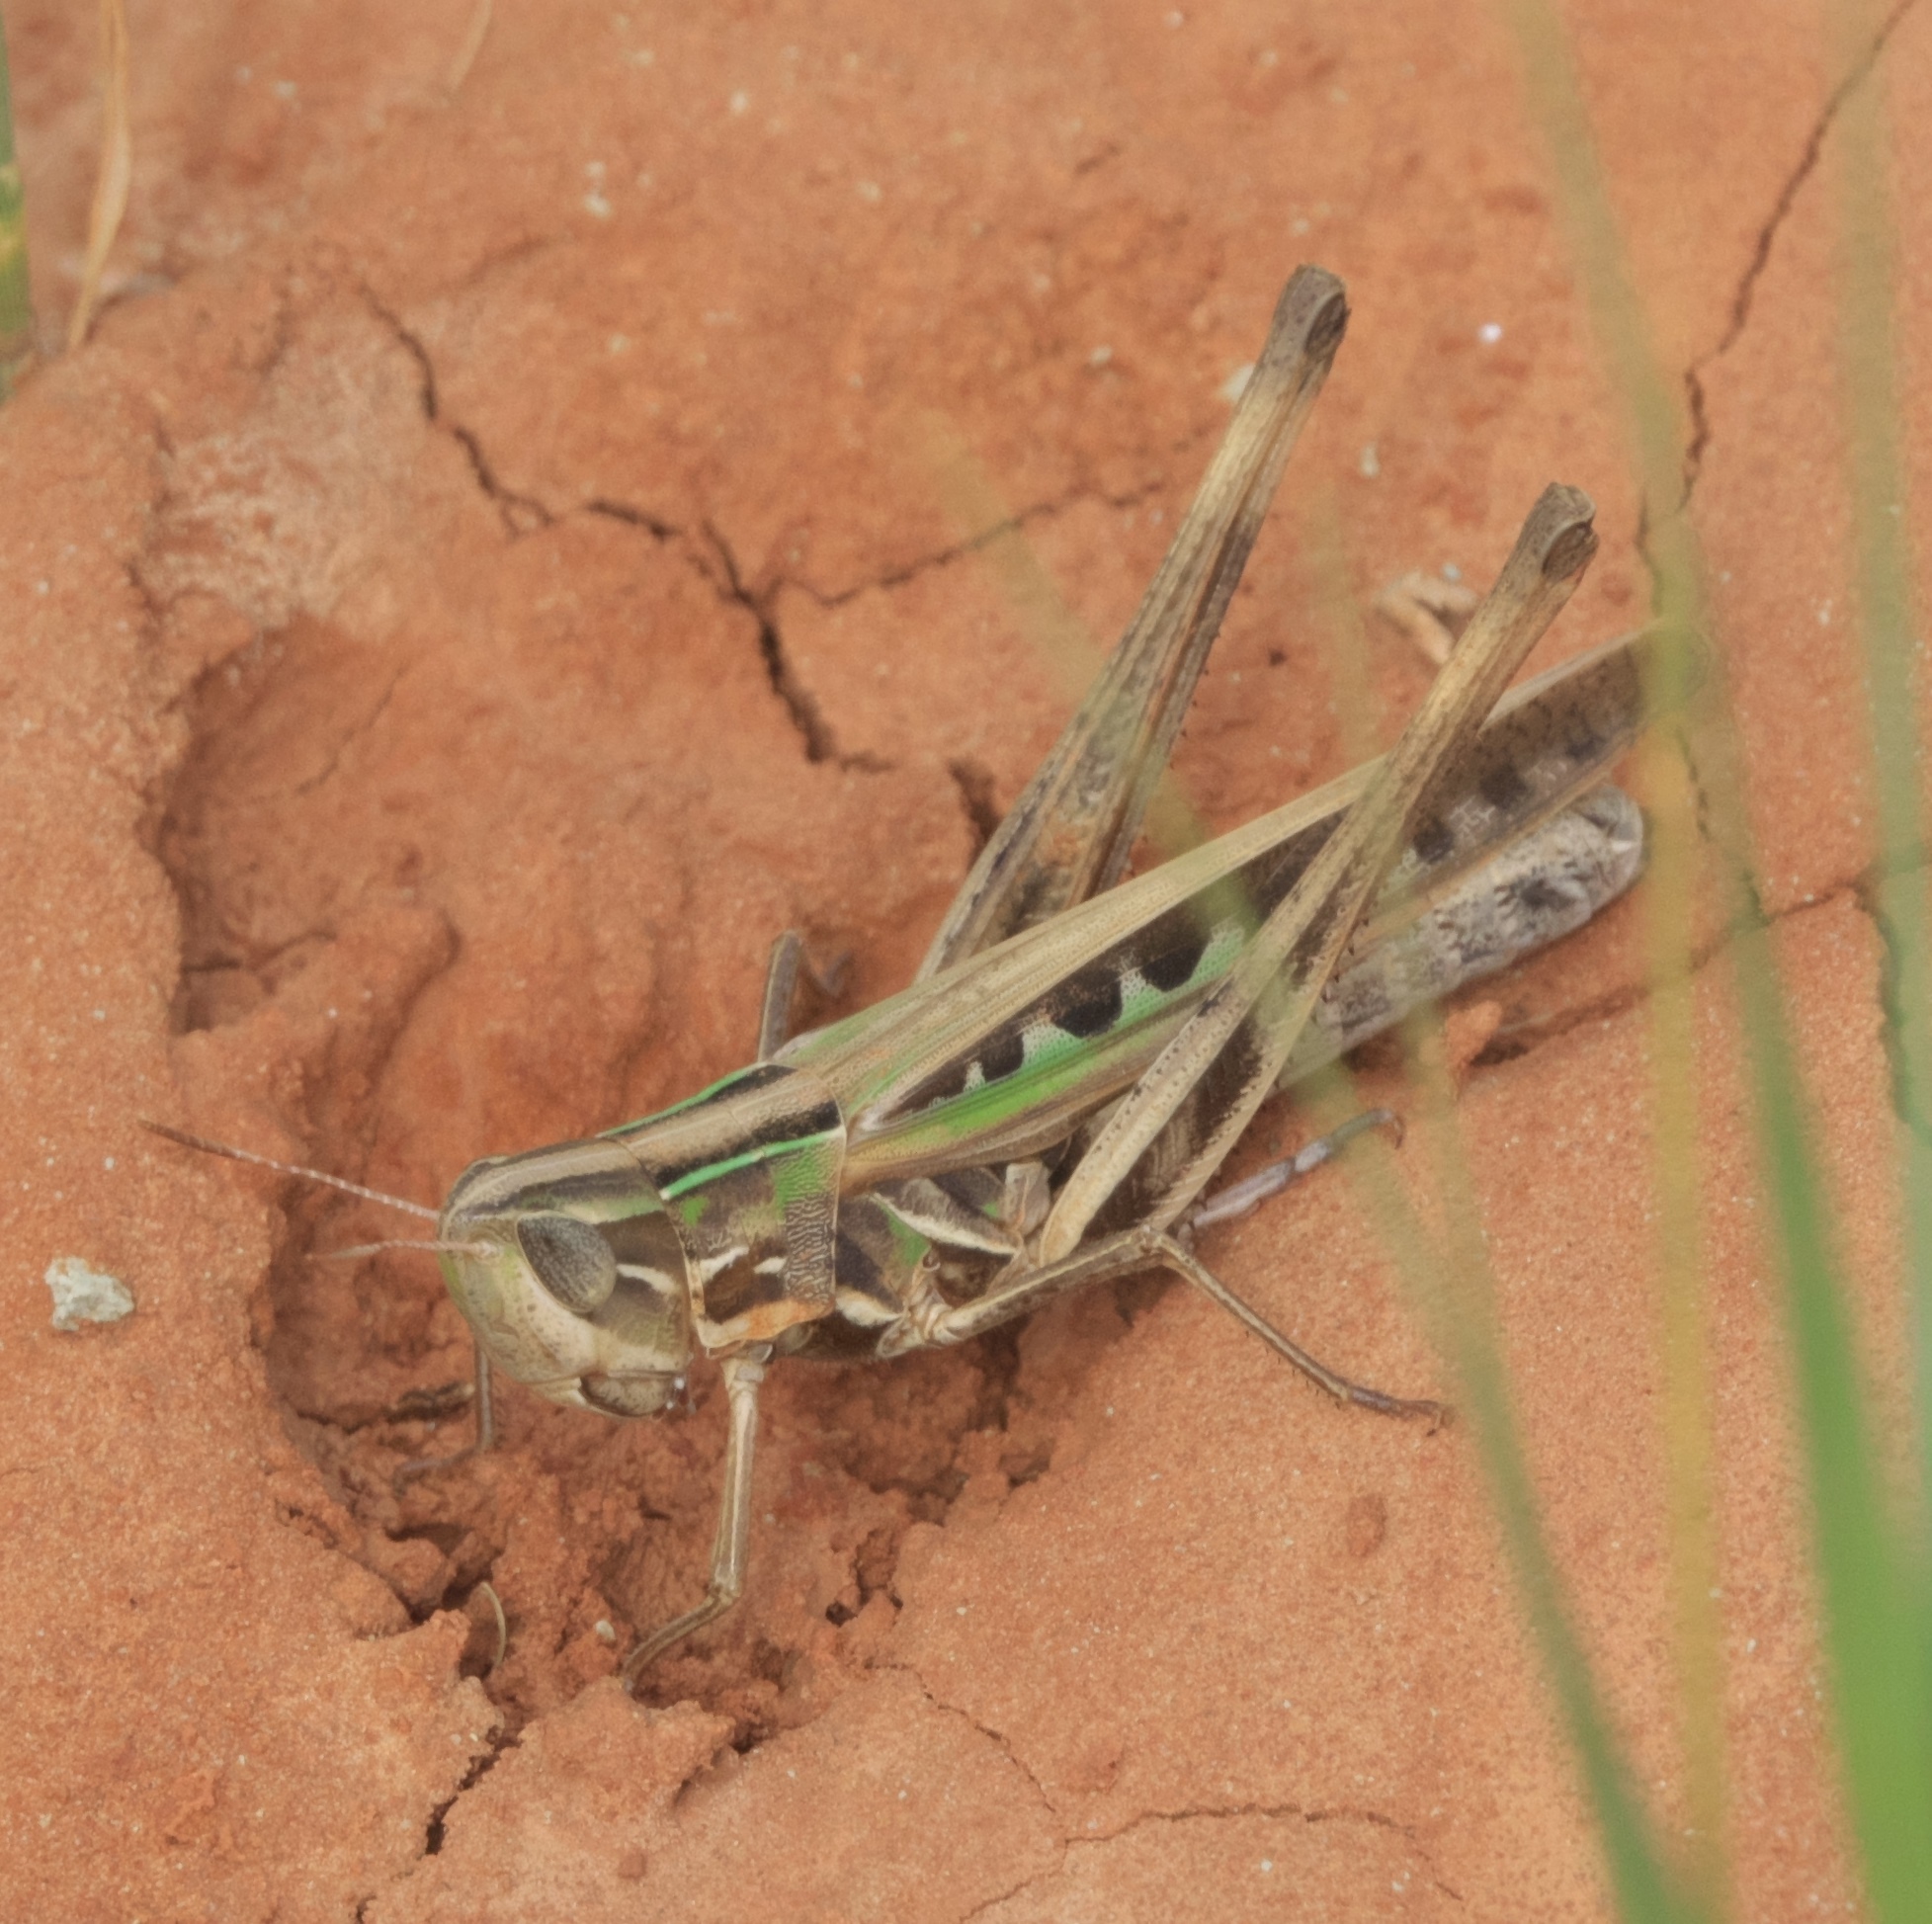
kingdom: Animalia
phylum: Arthropoda
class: Insecta
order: Orthoptera
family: Acrididae
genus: Syrbula
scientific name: Syrbula admirabilis
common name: Handsome grasshopper
